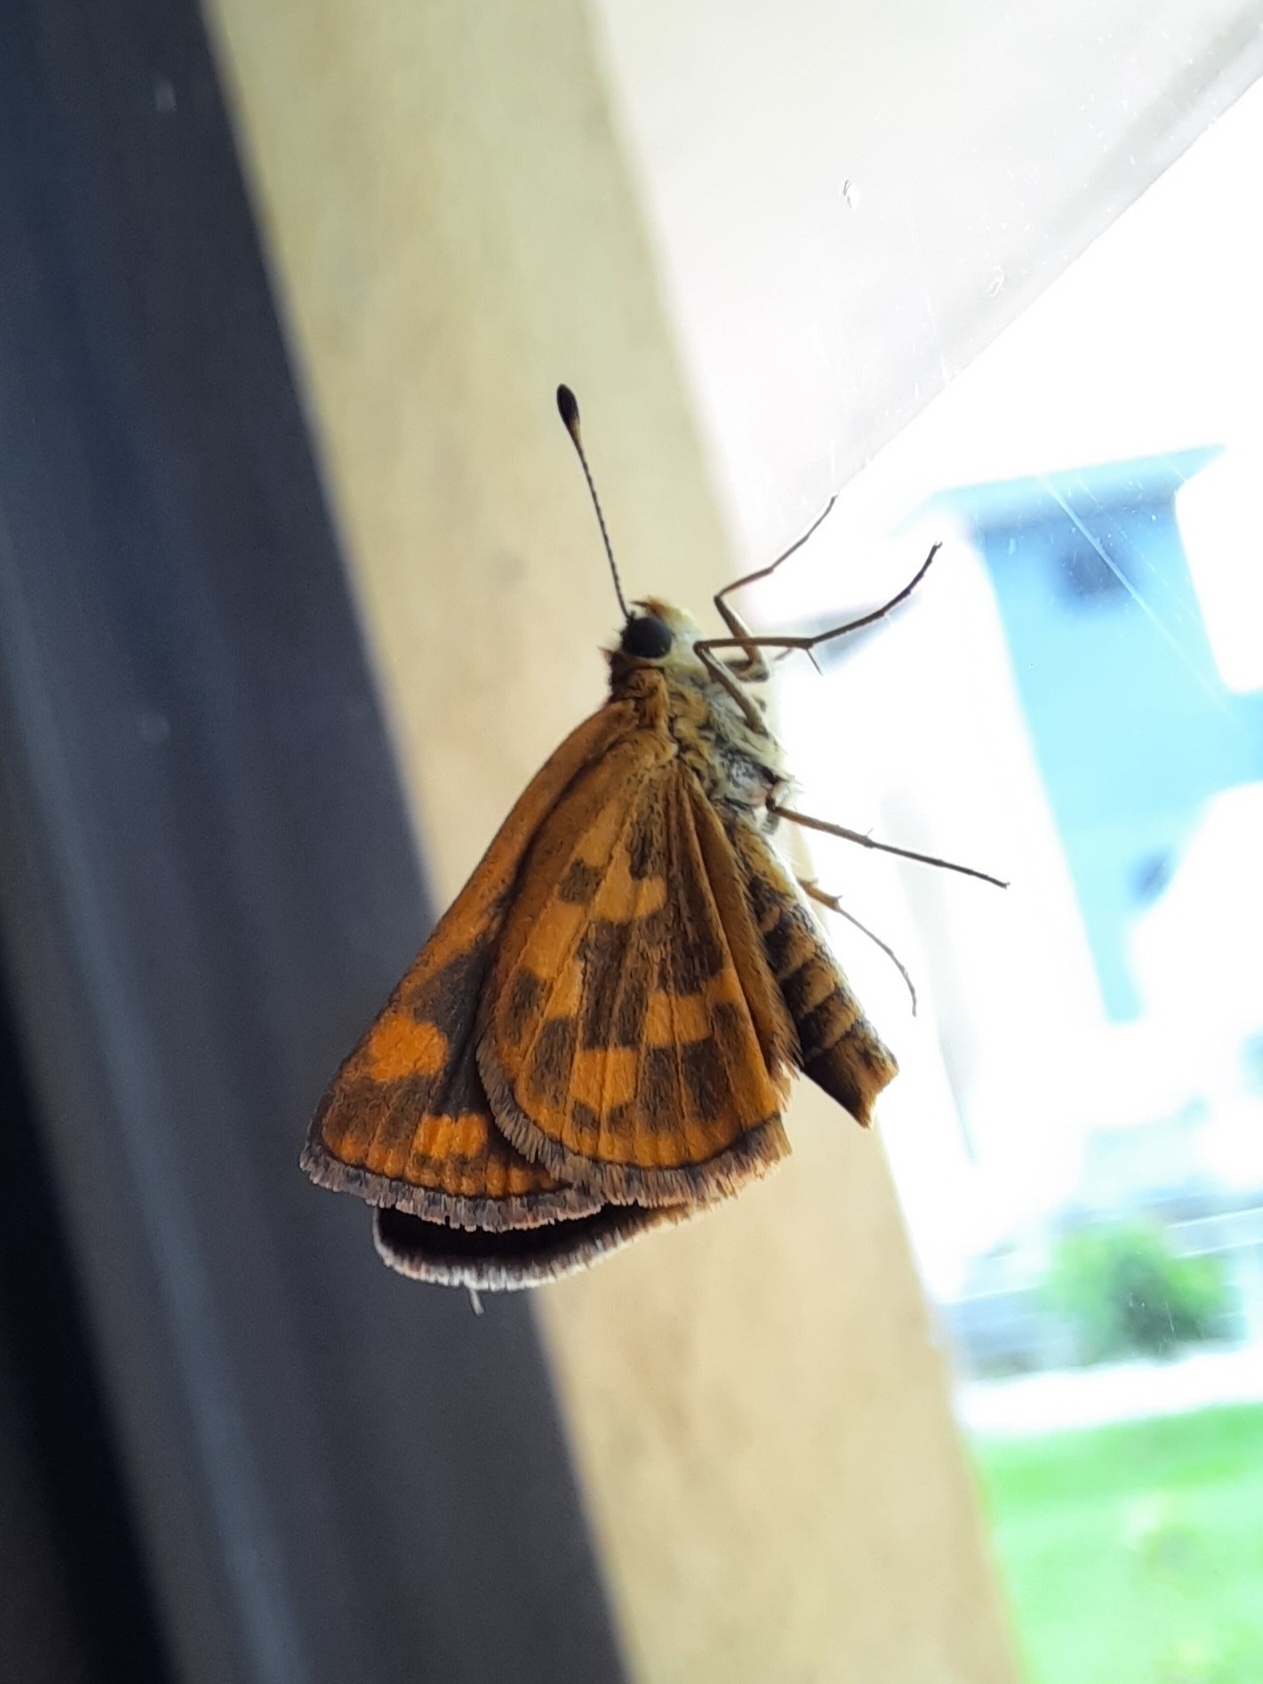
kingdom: Animalia
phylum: Arthropoda
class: Insecta
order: Lepidoptera
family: Hesperiidae
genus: Taractrocera
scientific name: Taractrocera ceramas
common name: Tamil grass dart
